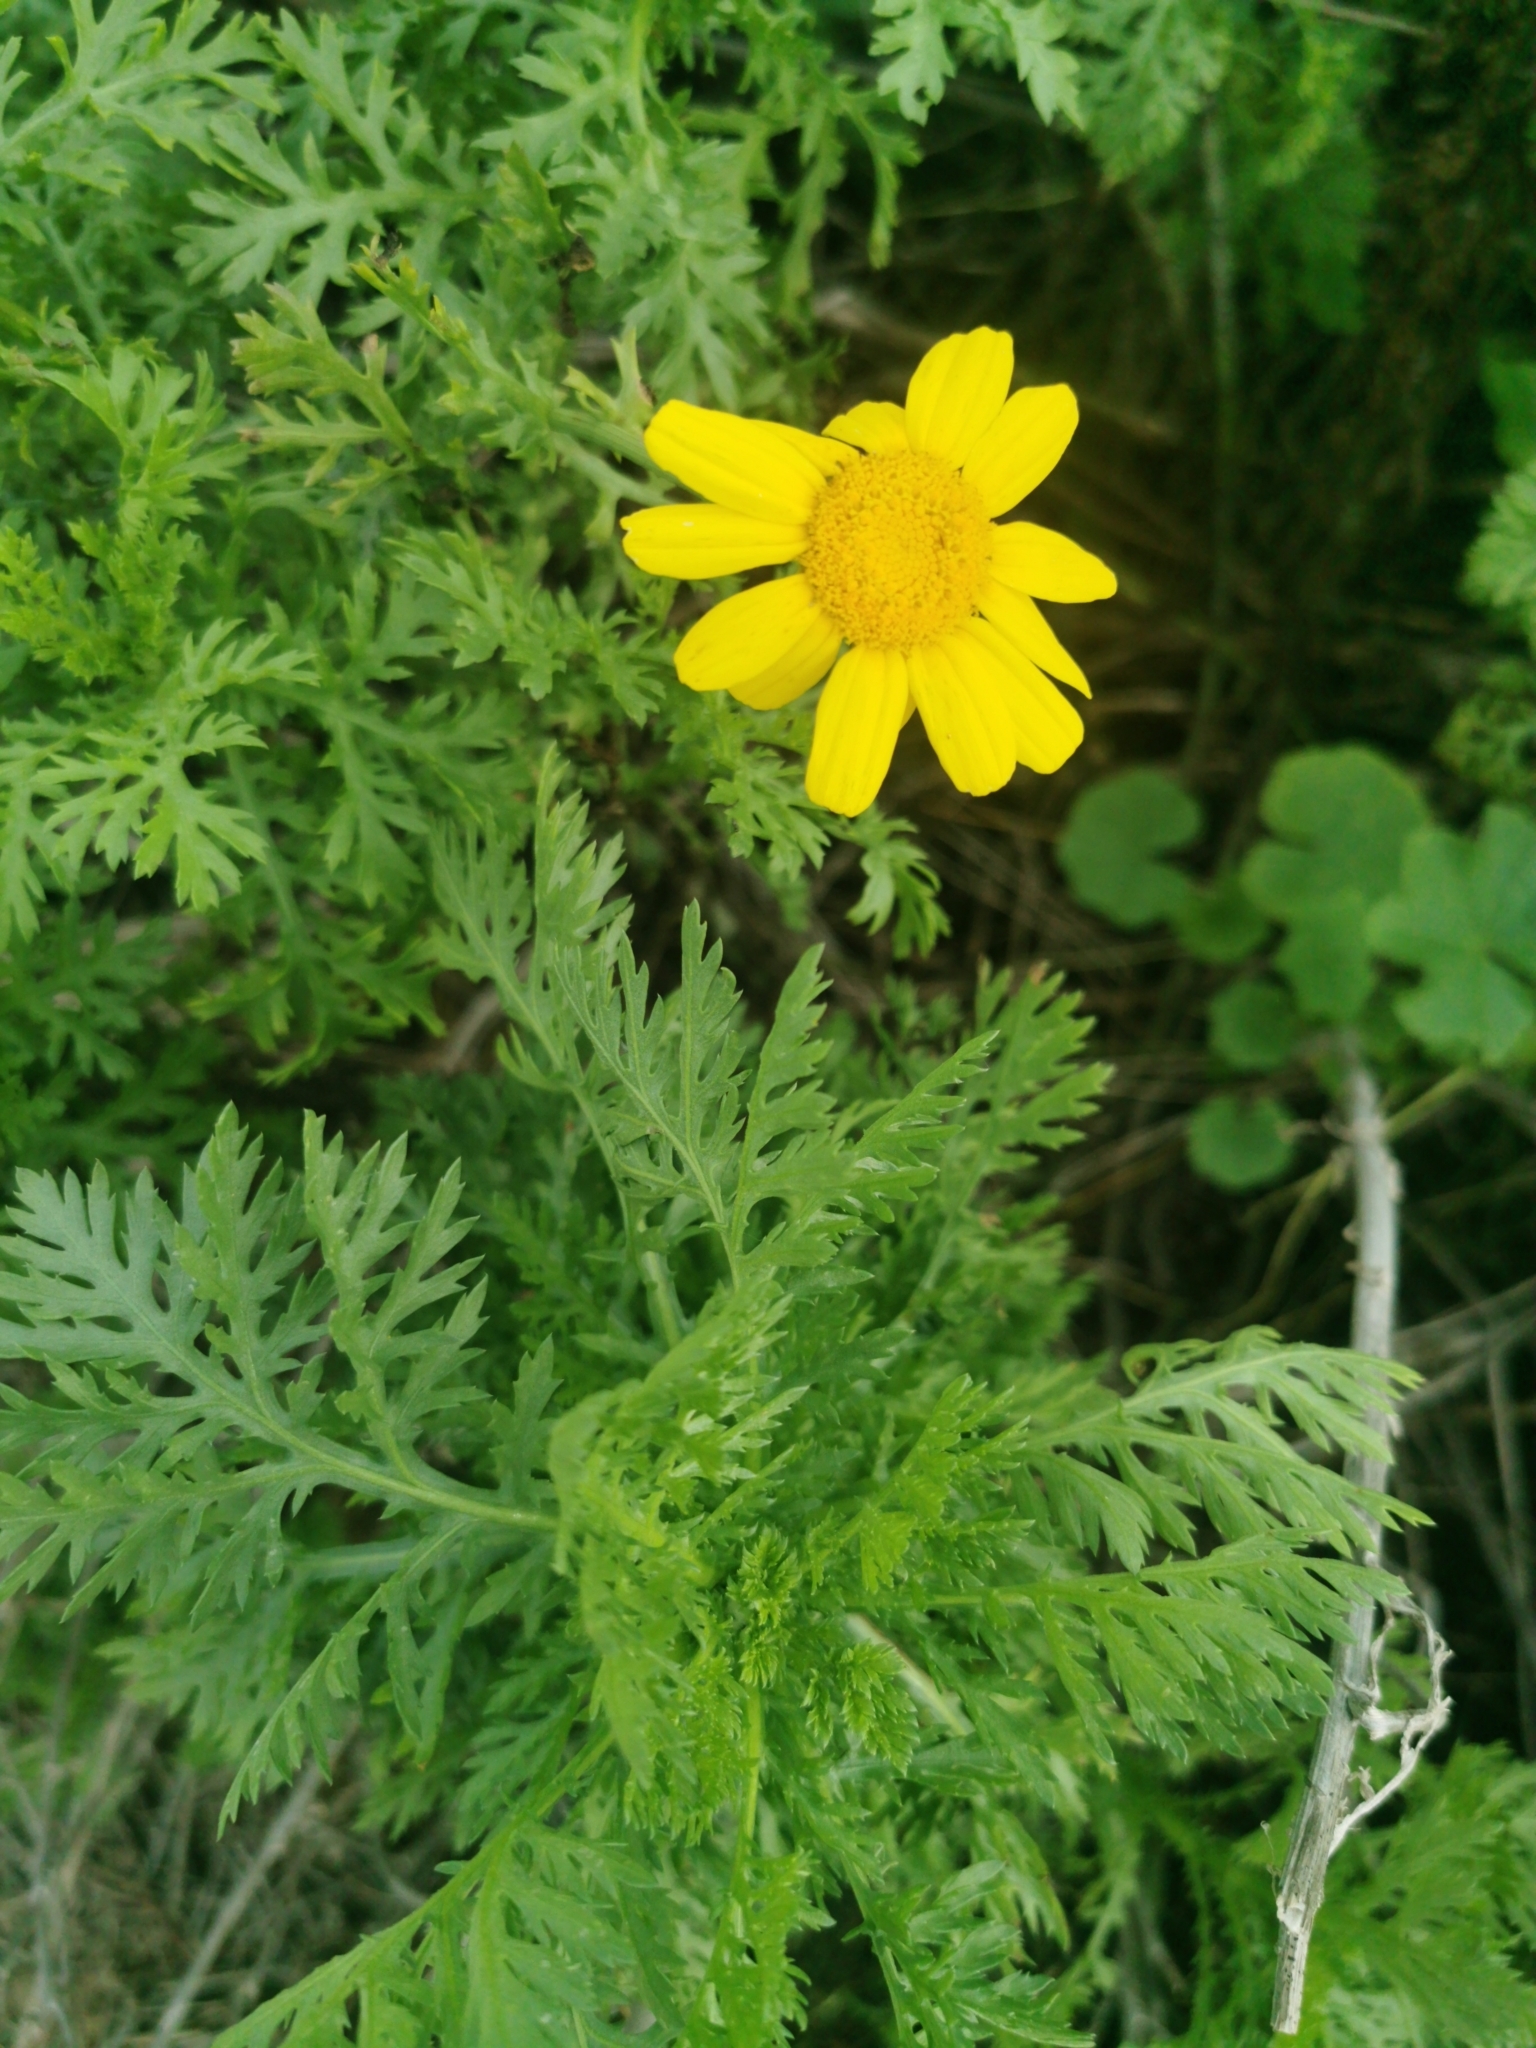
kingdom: Plantae
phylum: Tracheophyta
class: Magnoliopsida
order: Asterales
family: Asteraceae
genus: Glebionis
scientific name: Glebionis coronaria
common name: Crowndaisy
